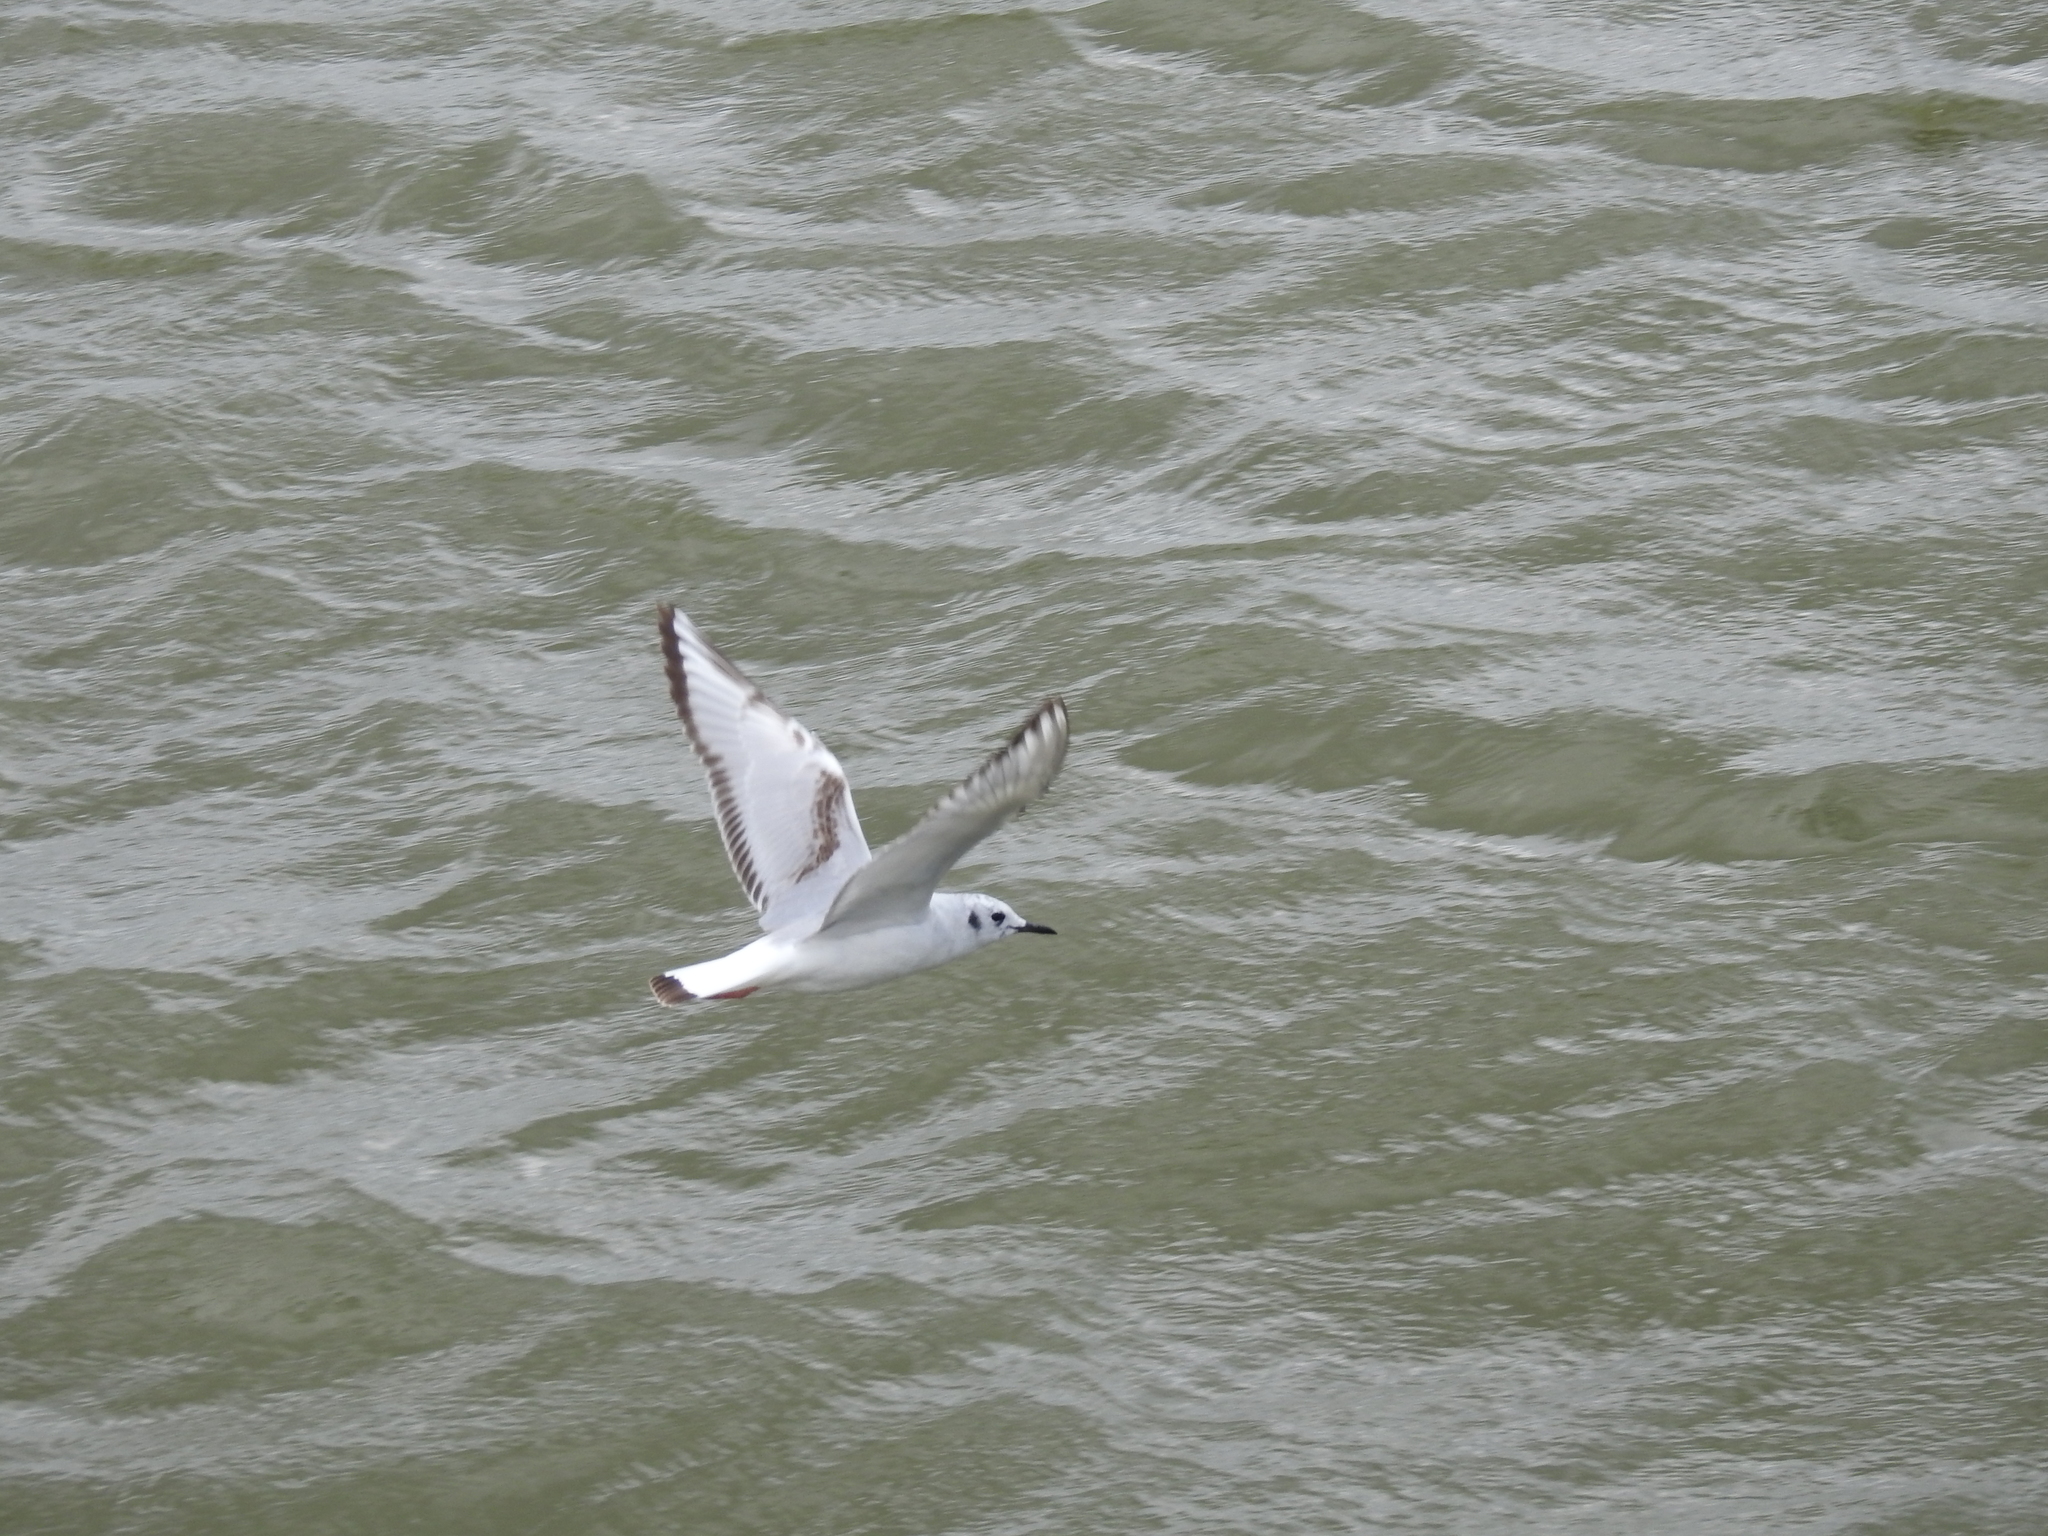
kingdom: Animalia
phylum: Chordata
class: Aves
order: Charadriiformes
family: Laridae
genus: Chroicocephalus
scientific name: Chroicocephalus philadelphia
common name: Bonaparte's gull
